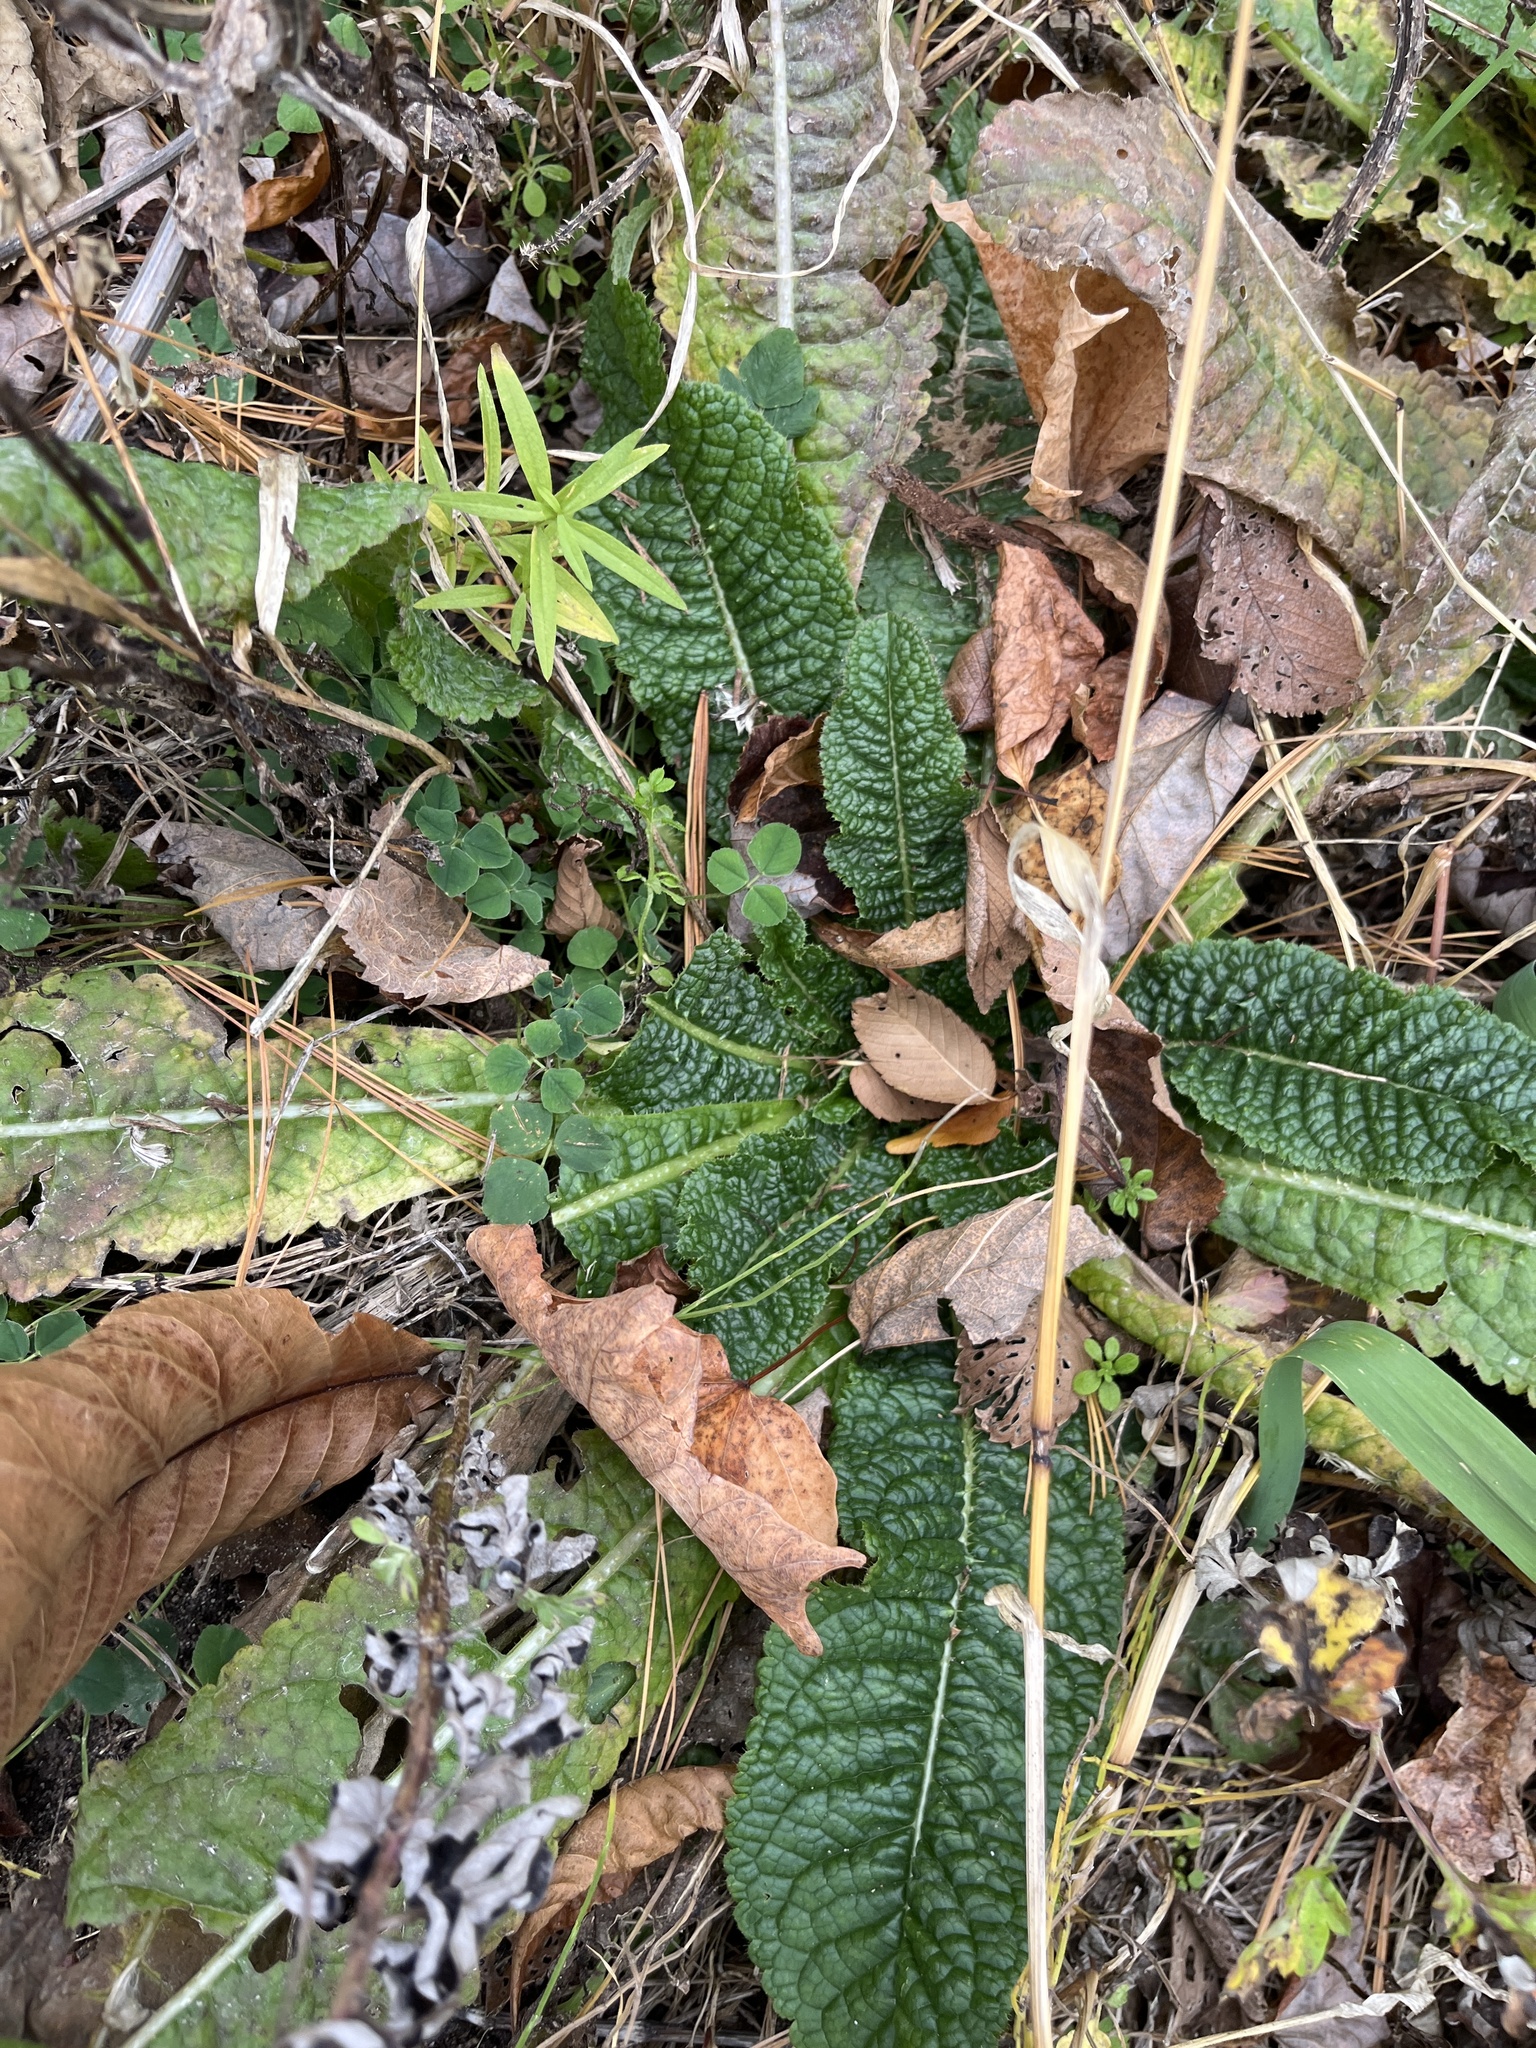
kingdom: Plantae
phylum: Tracheophyta
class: Magnoliopsida
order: Dipsacales
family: Caprifoliaceae
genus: Dipsacus
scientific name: Dipsacus fullonum
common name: Teasel
